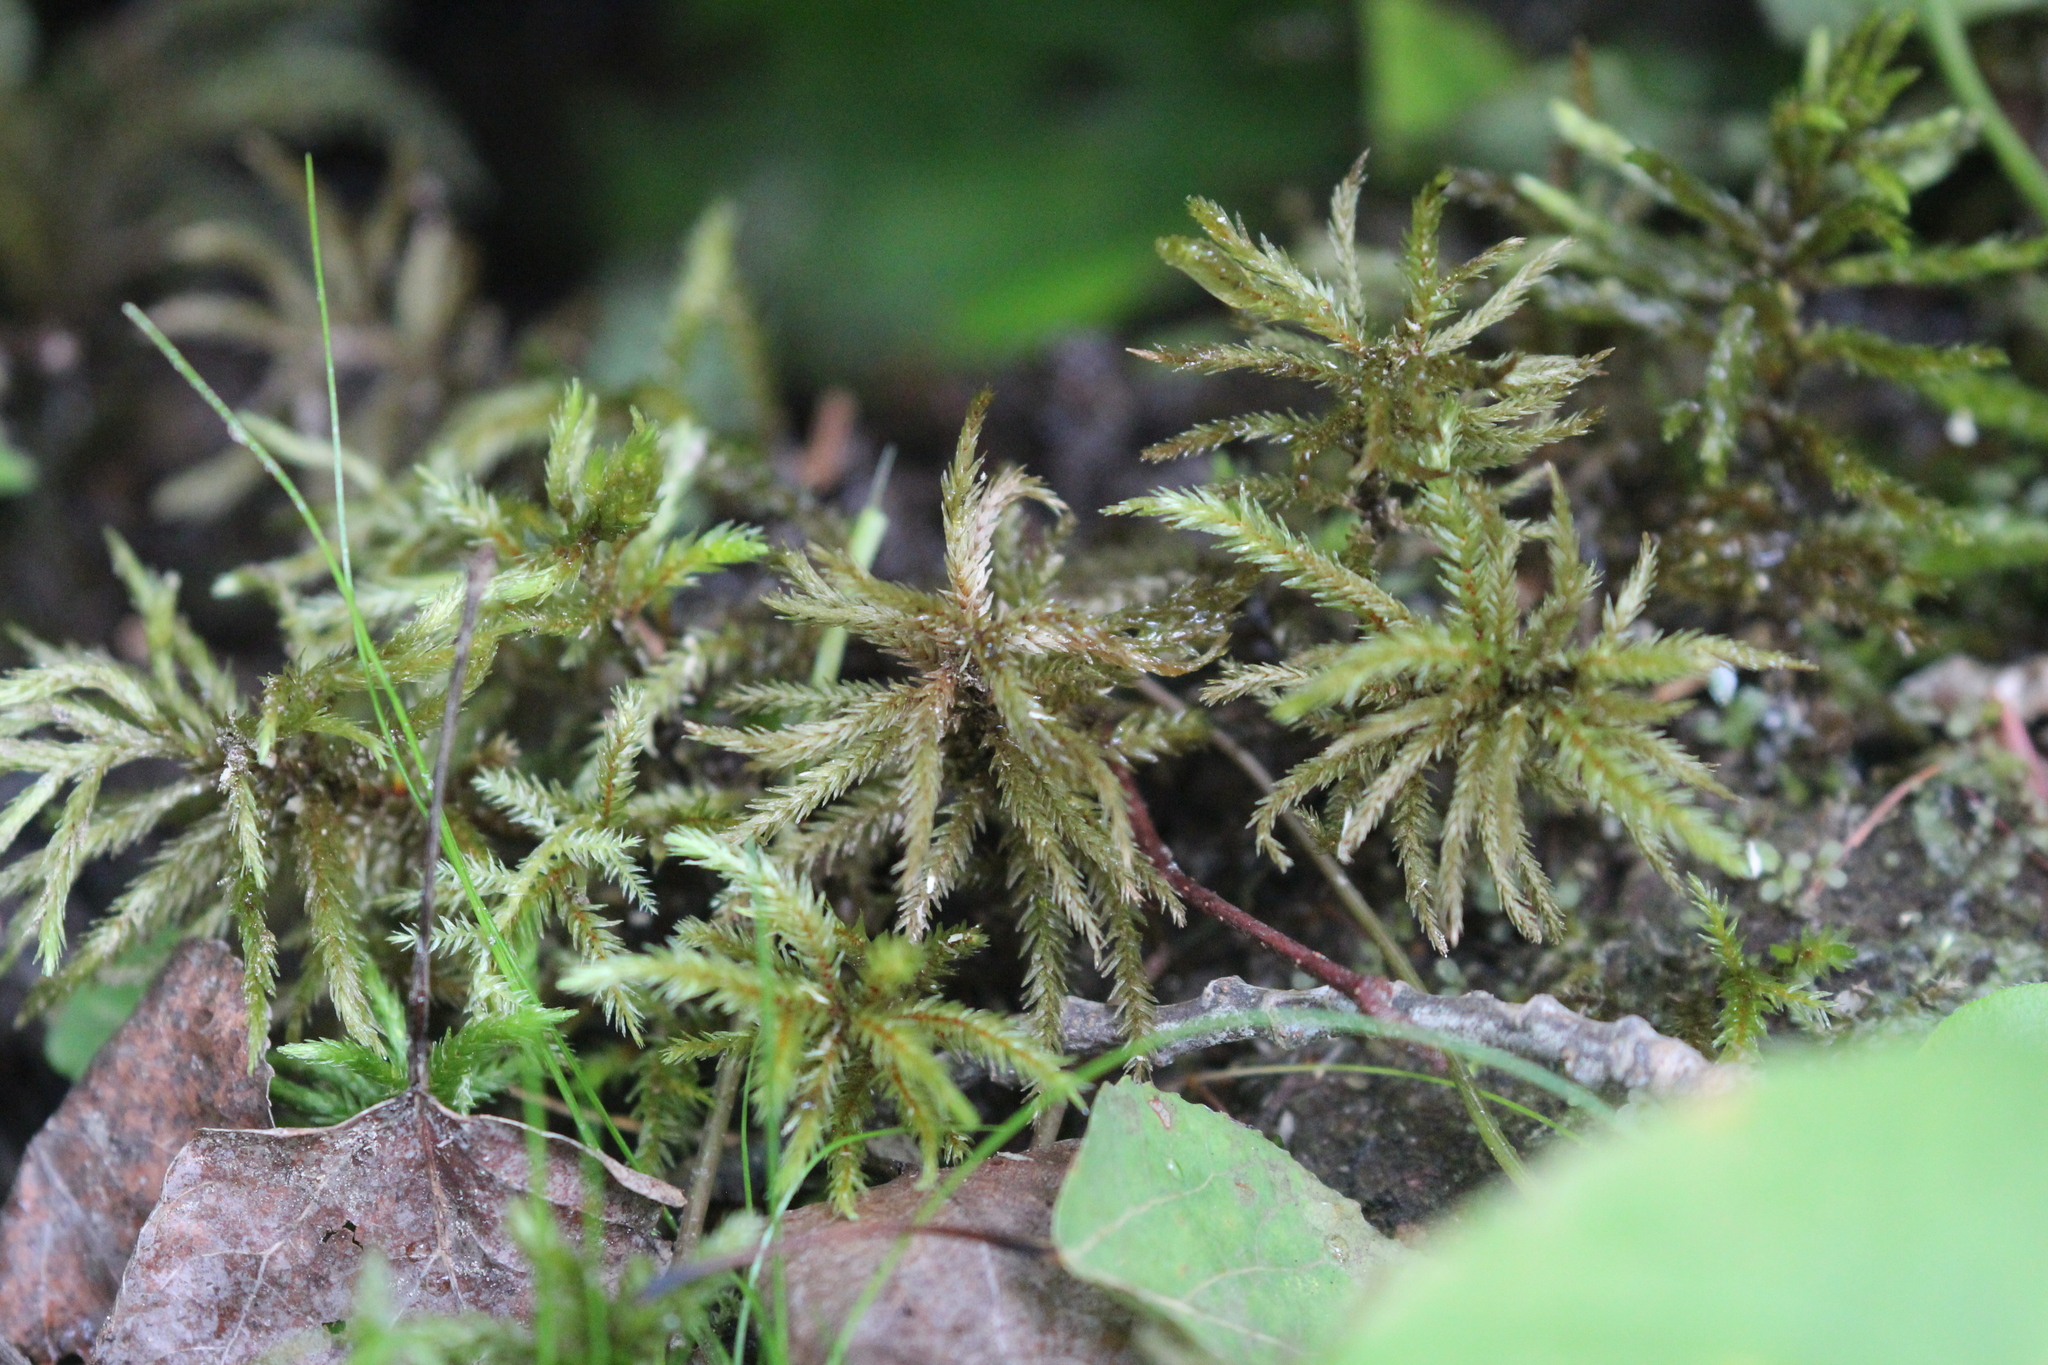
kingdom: Plantae
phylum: Bryophyta
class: Bryopsida
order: Hypnales
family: Climaciaceae
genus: Climacium
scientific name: Climacium dendroides
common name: Northern tree moss
